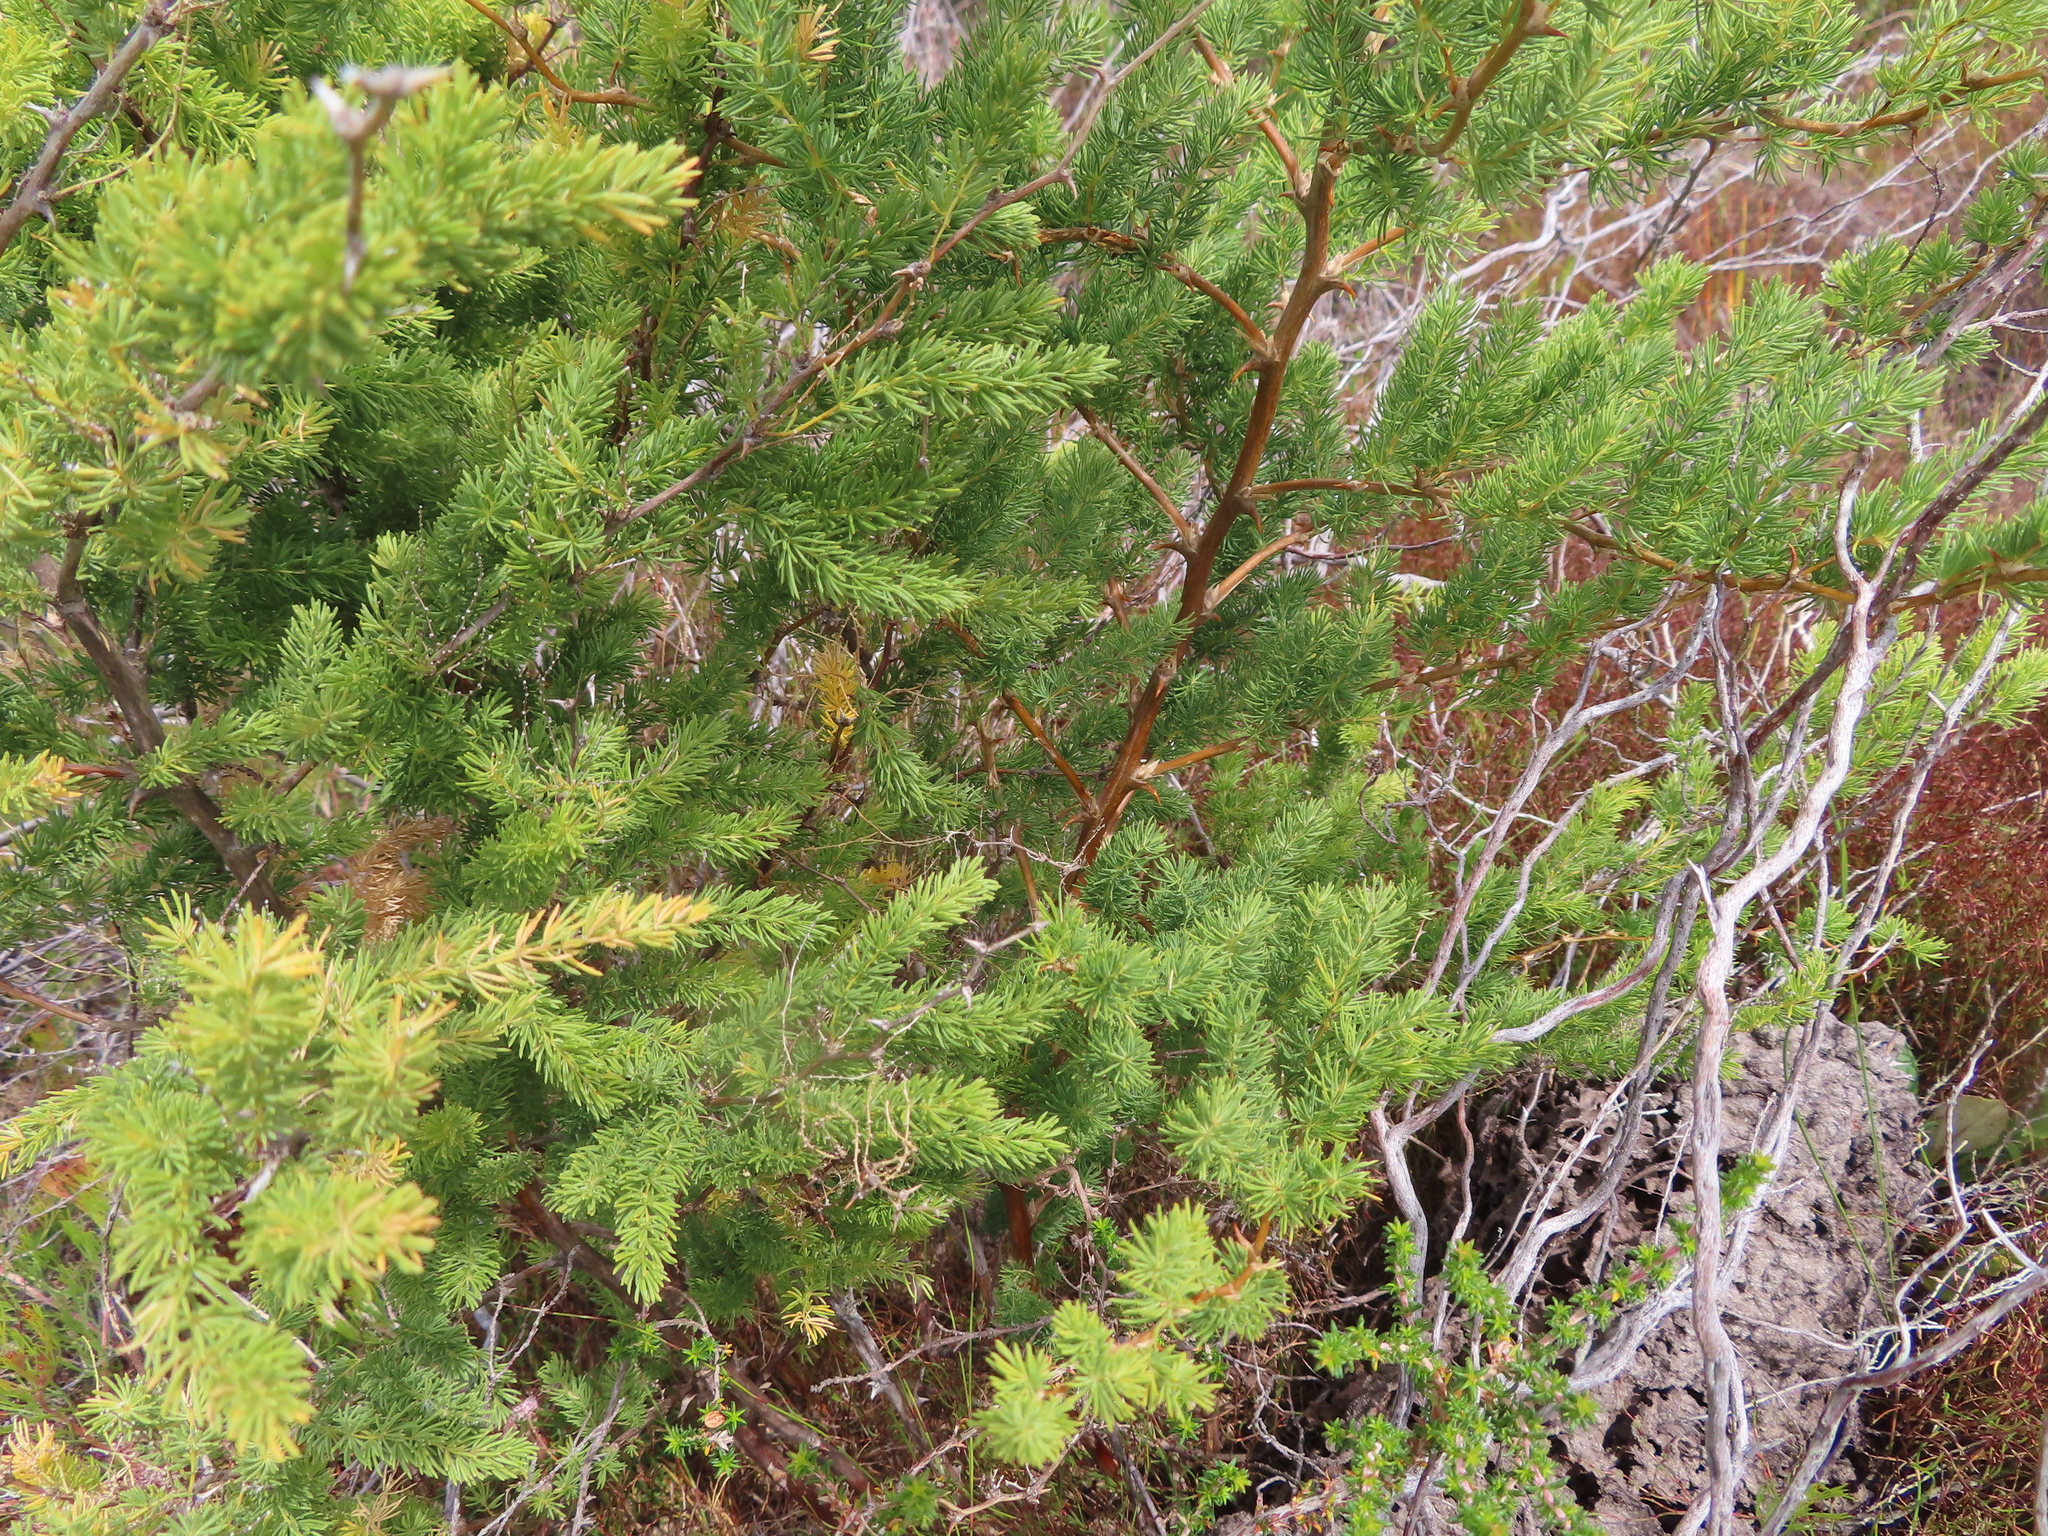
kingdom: Plantae
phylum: Tracheophyta
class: Liliopsida
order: Asparagales
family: Asparagaceae
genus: Asparagus
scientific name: Asparagus rubicundus
